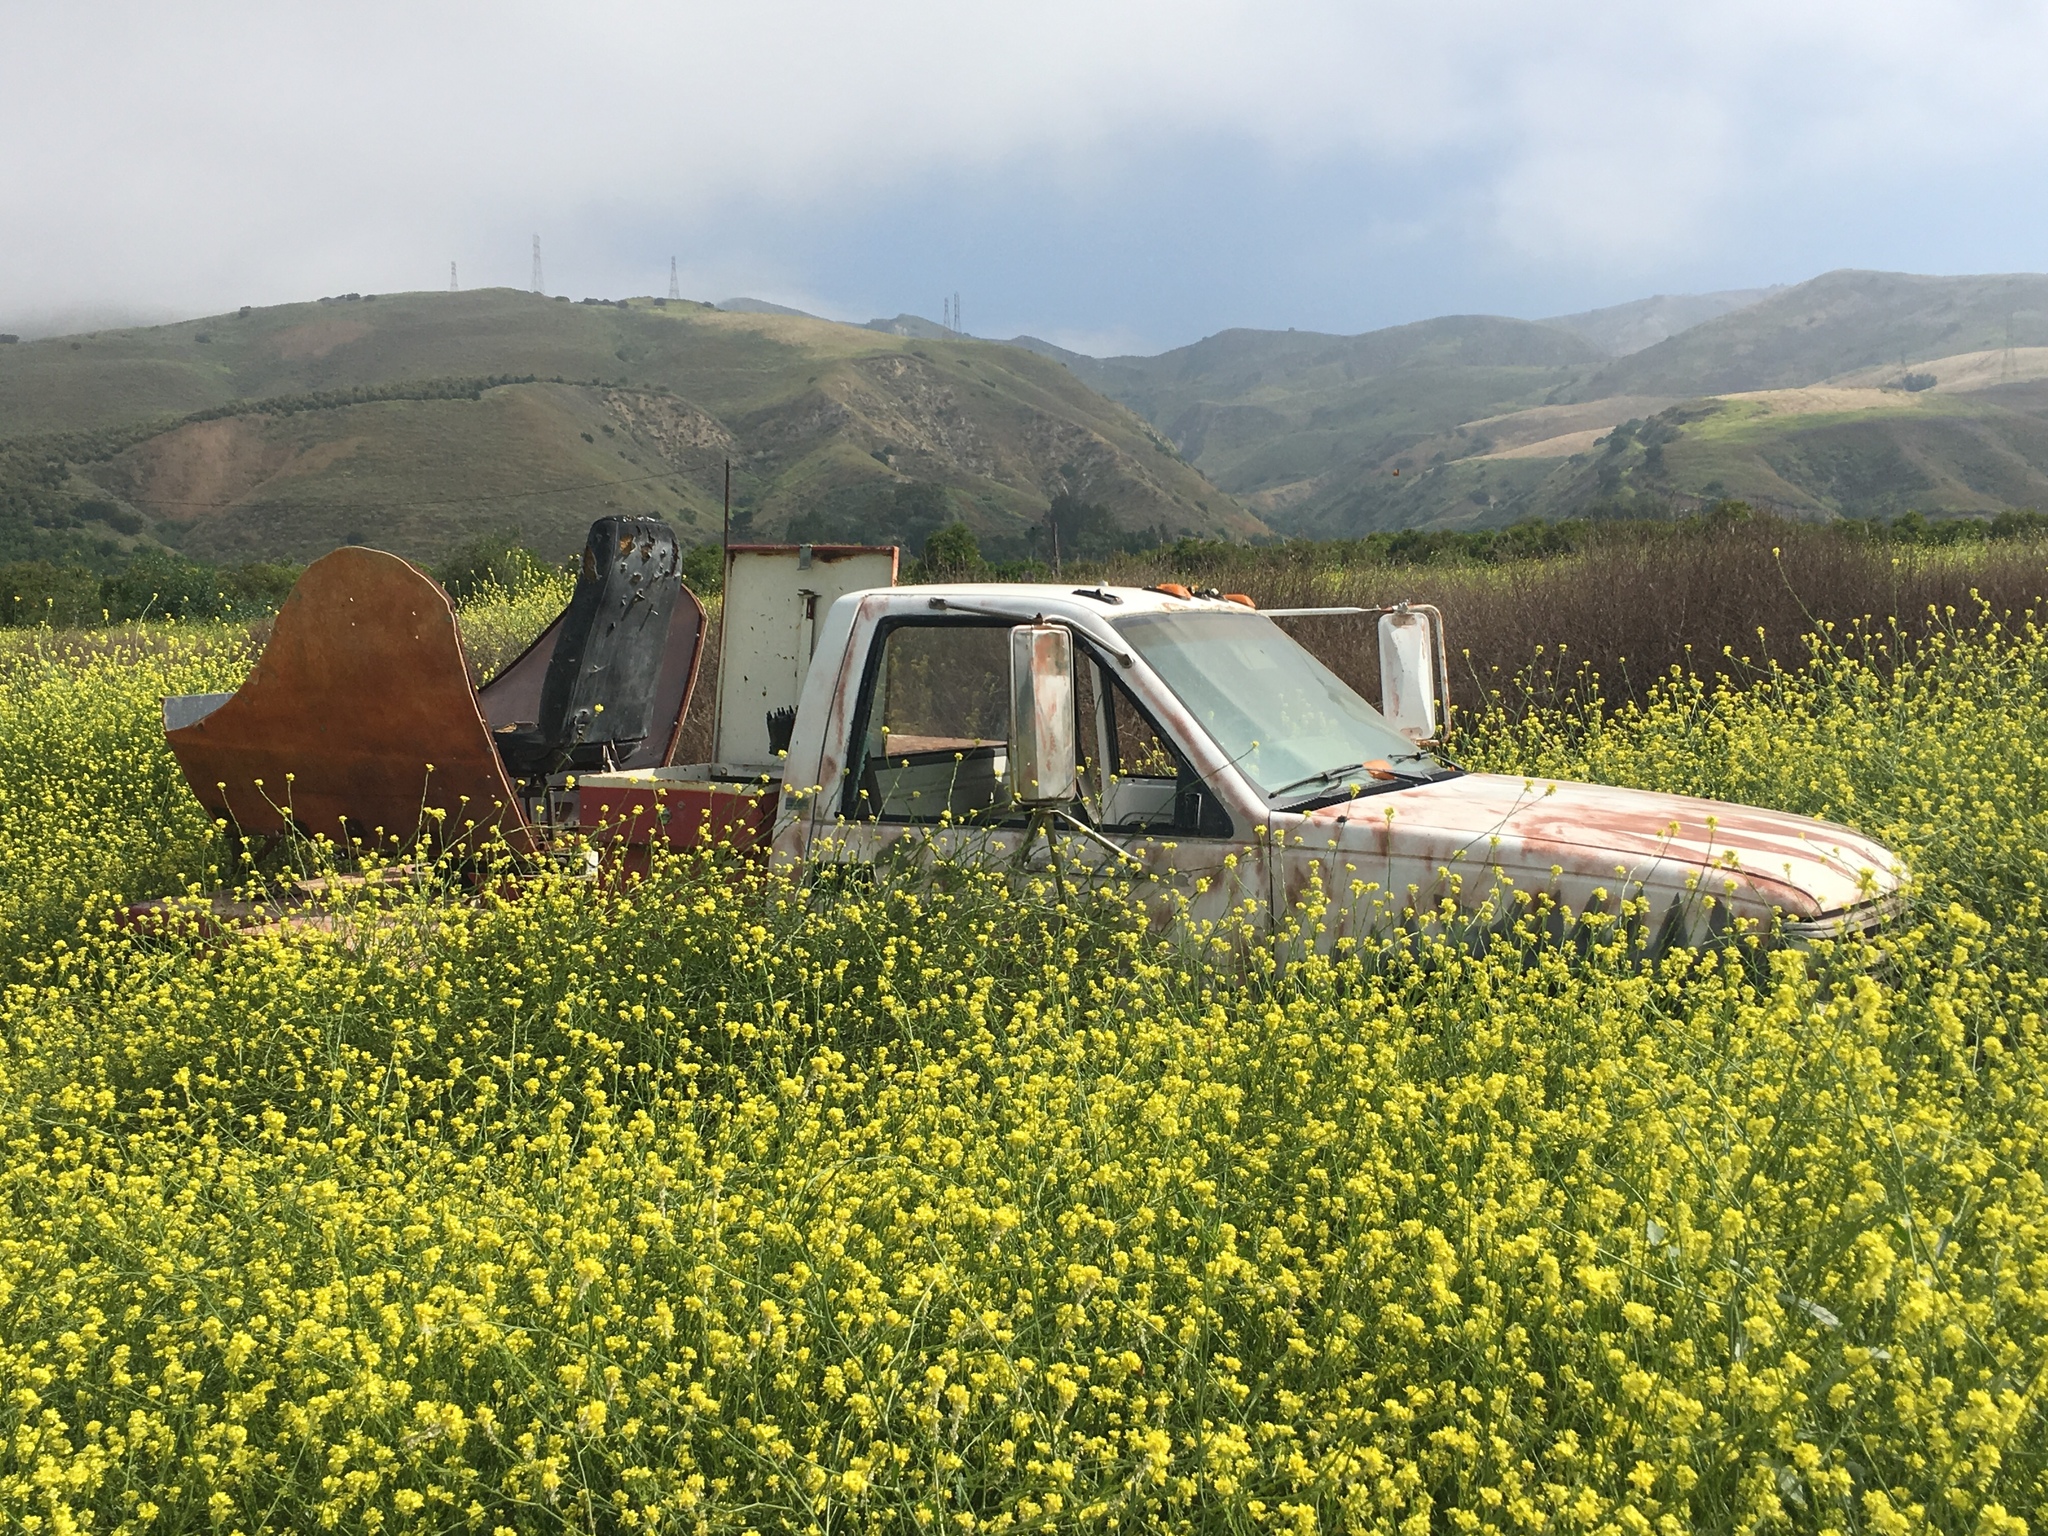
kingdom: Plantae
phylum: Tracheophyta
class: Magnoliopsida
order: Brassicales
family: Brassicaceae
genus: Hirschfeldia
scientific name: Hirschfeldia incana
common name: Hoary mustard
